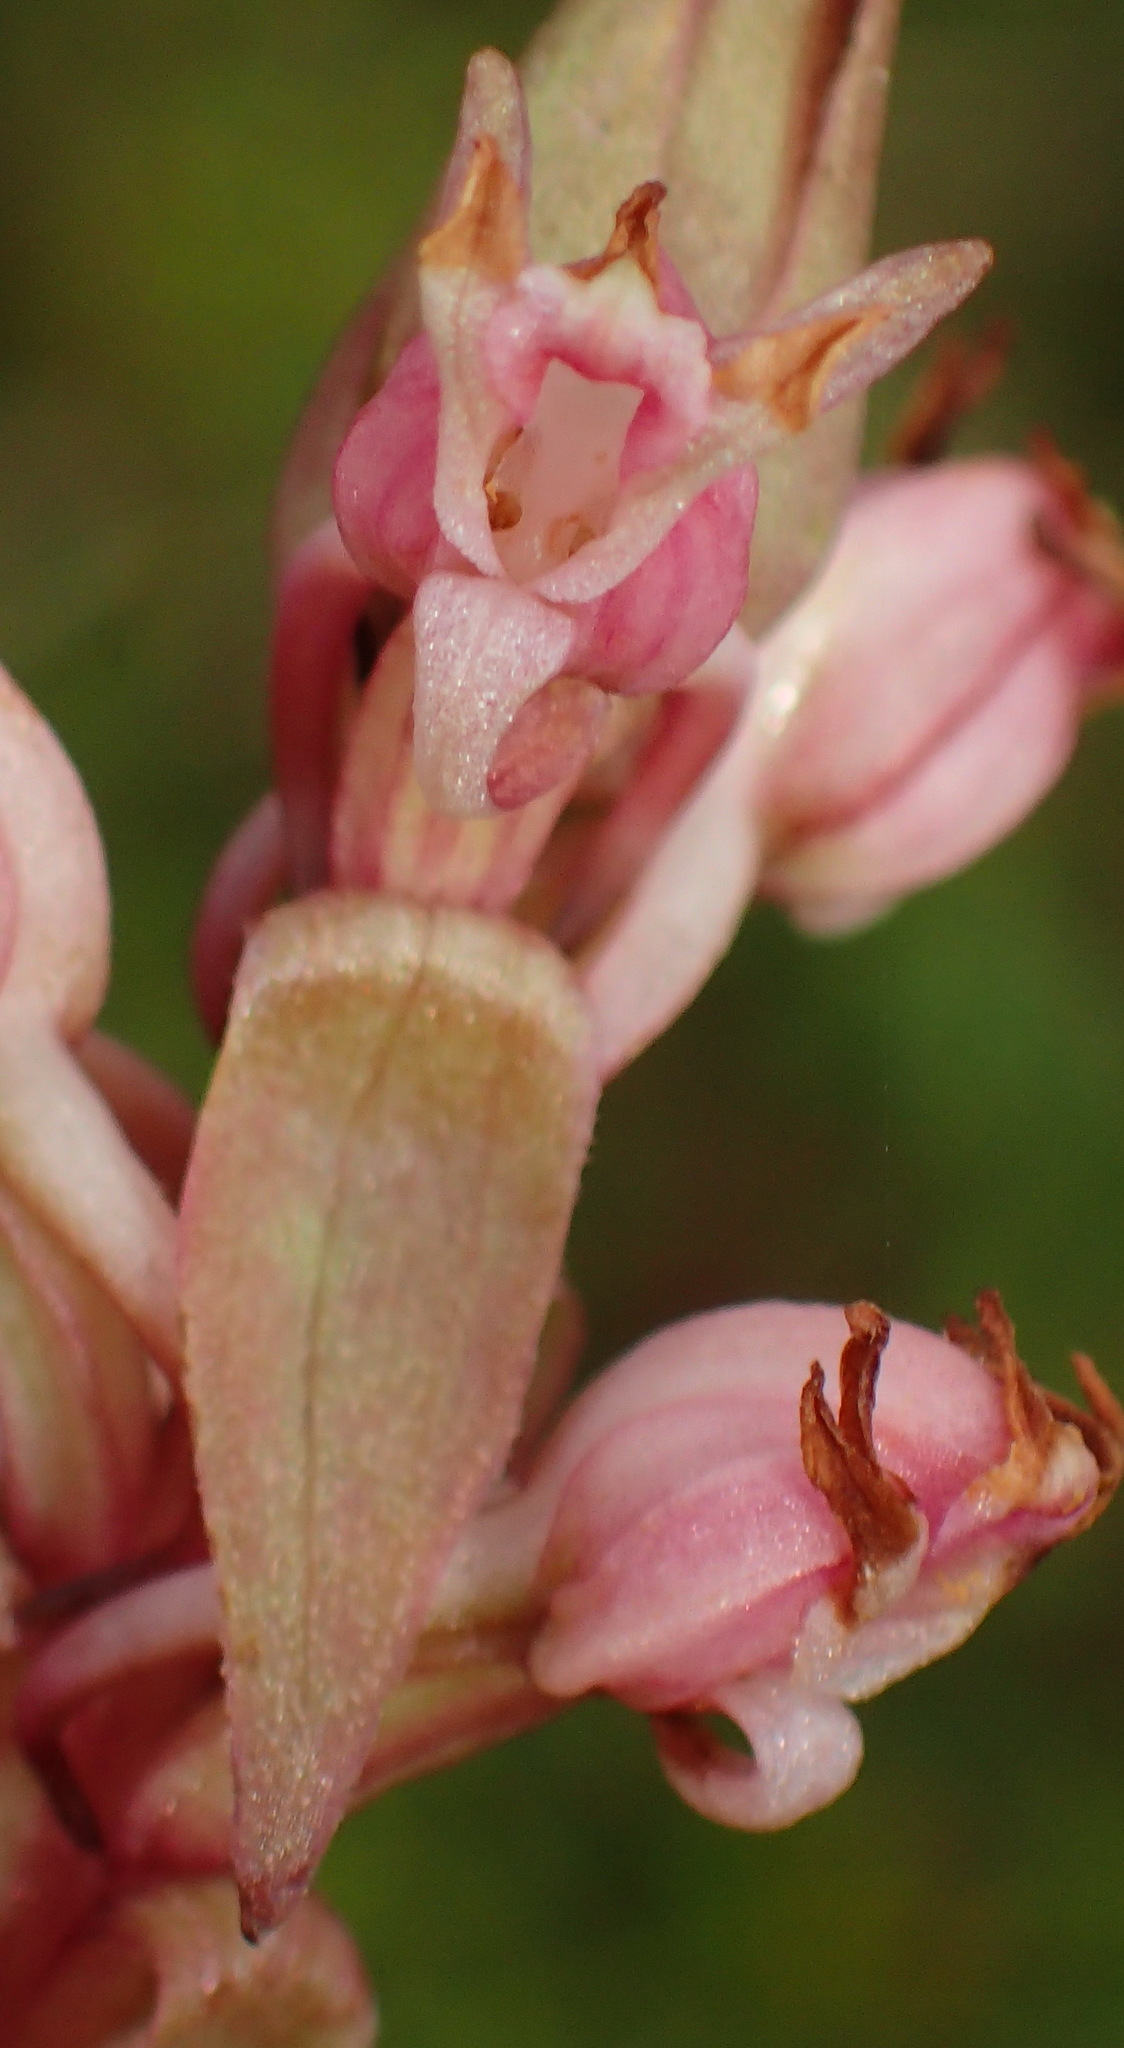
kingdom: Plantae
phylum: Tracheophyta
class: Liliopsida
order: Asparagales
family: Orchidaceae
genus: Satyrium
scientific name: Satyrium ligulatum
